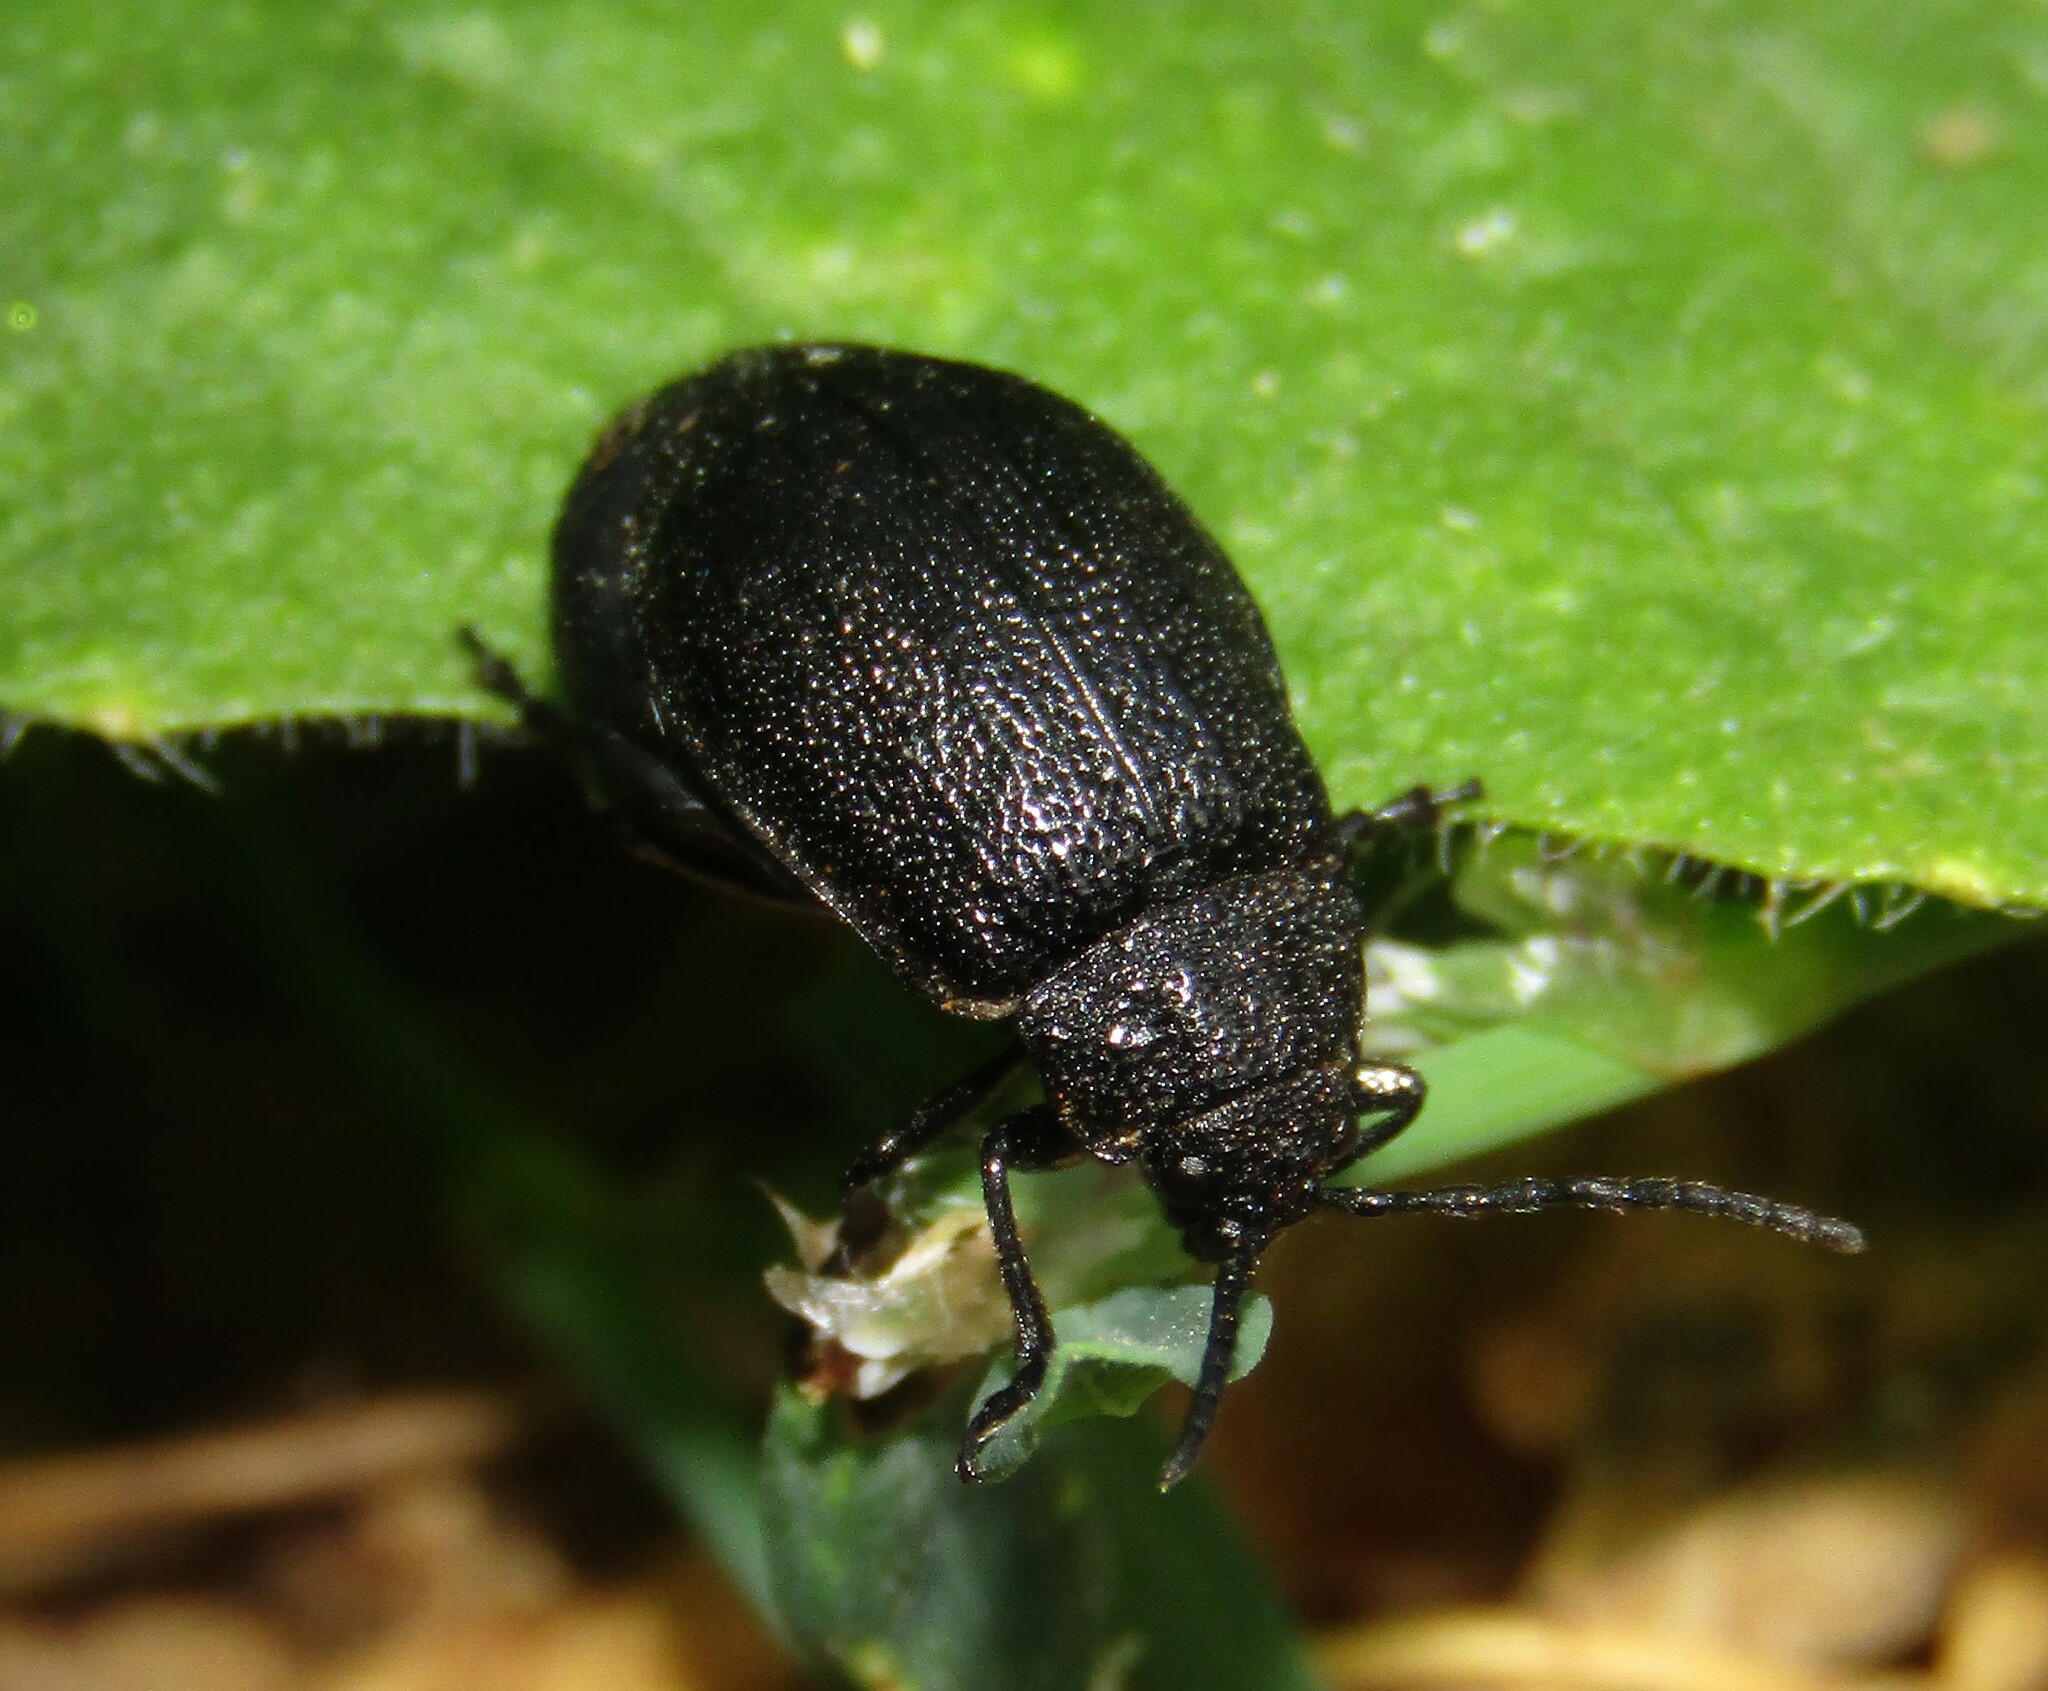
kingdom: Animalia
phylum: Arthropoda
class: Insecta
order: Coleoptera
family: Chrysomelidae
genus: Galeruca
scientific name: Galeruca tanaceti
